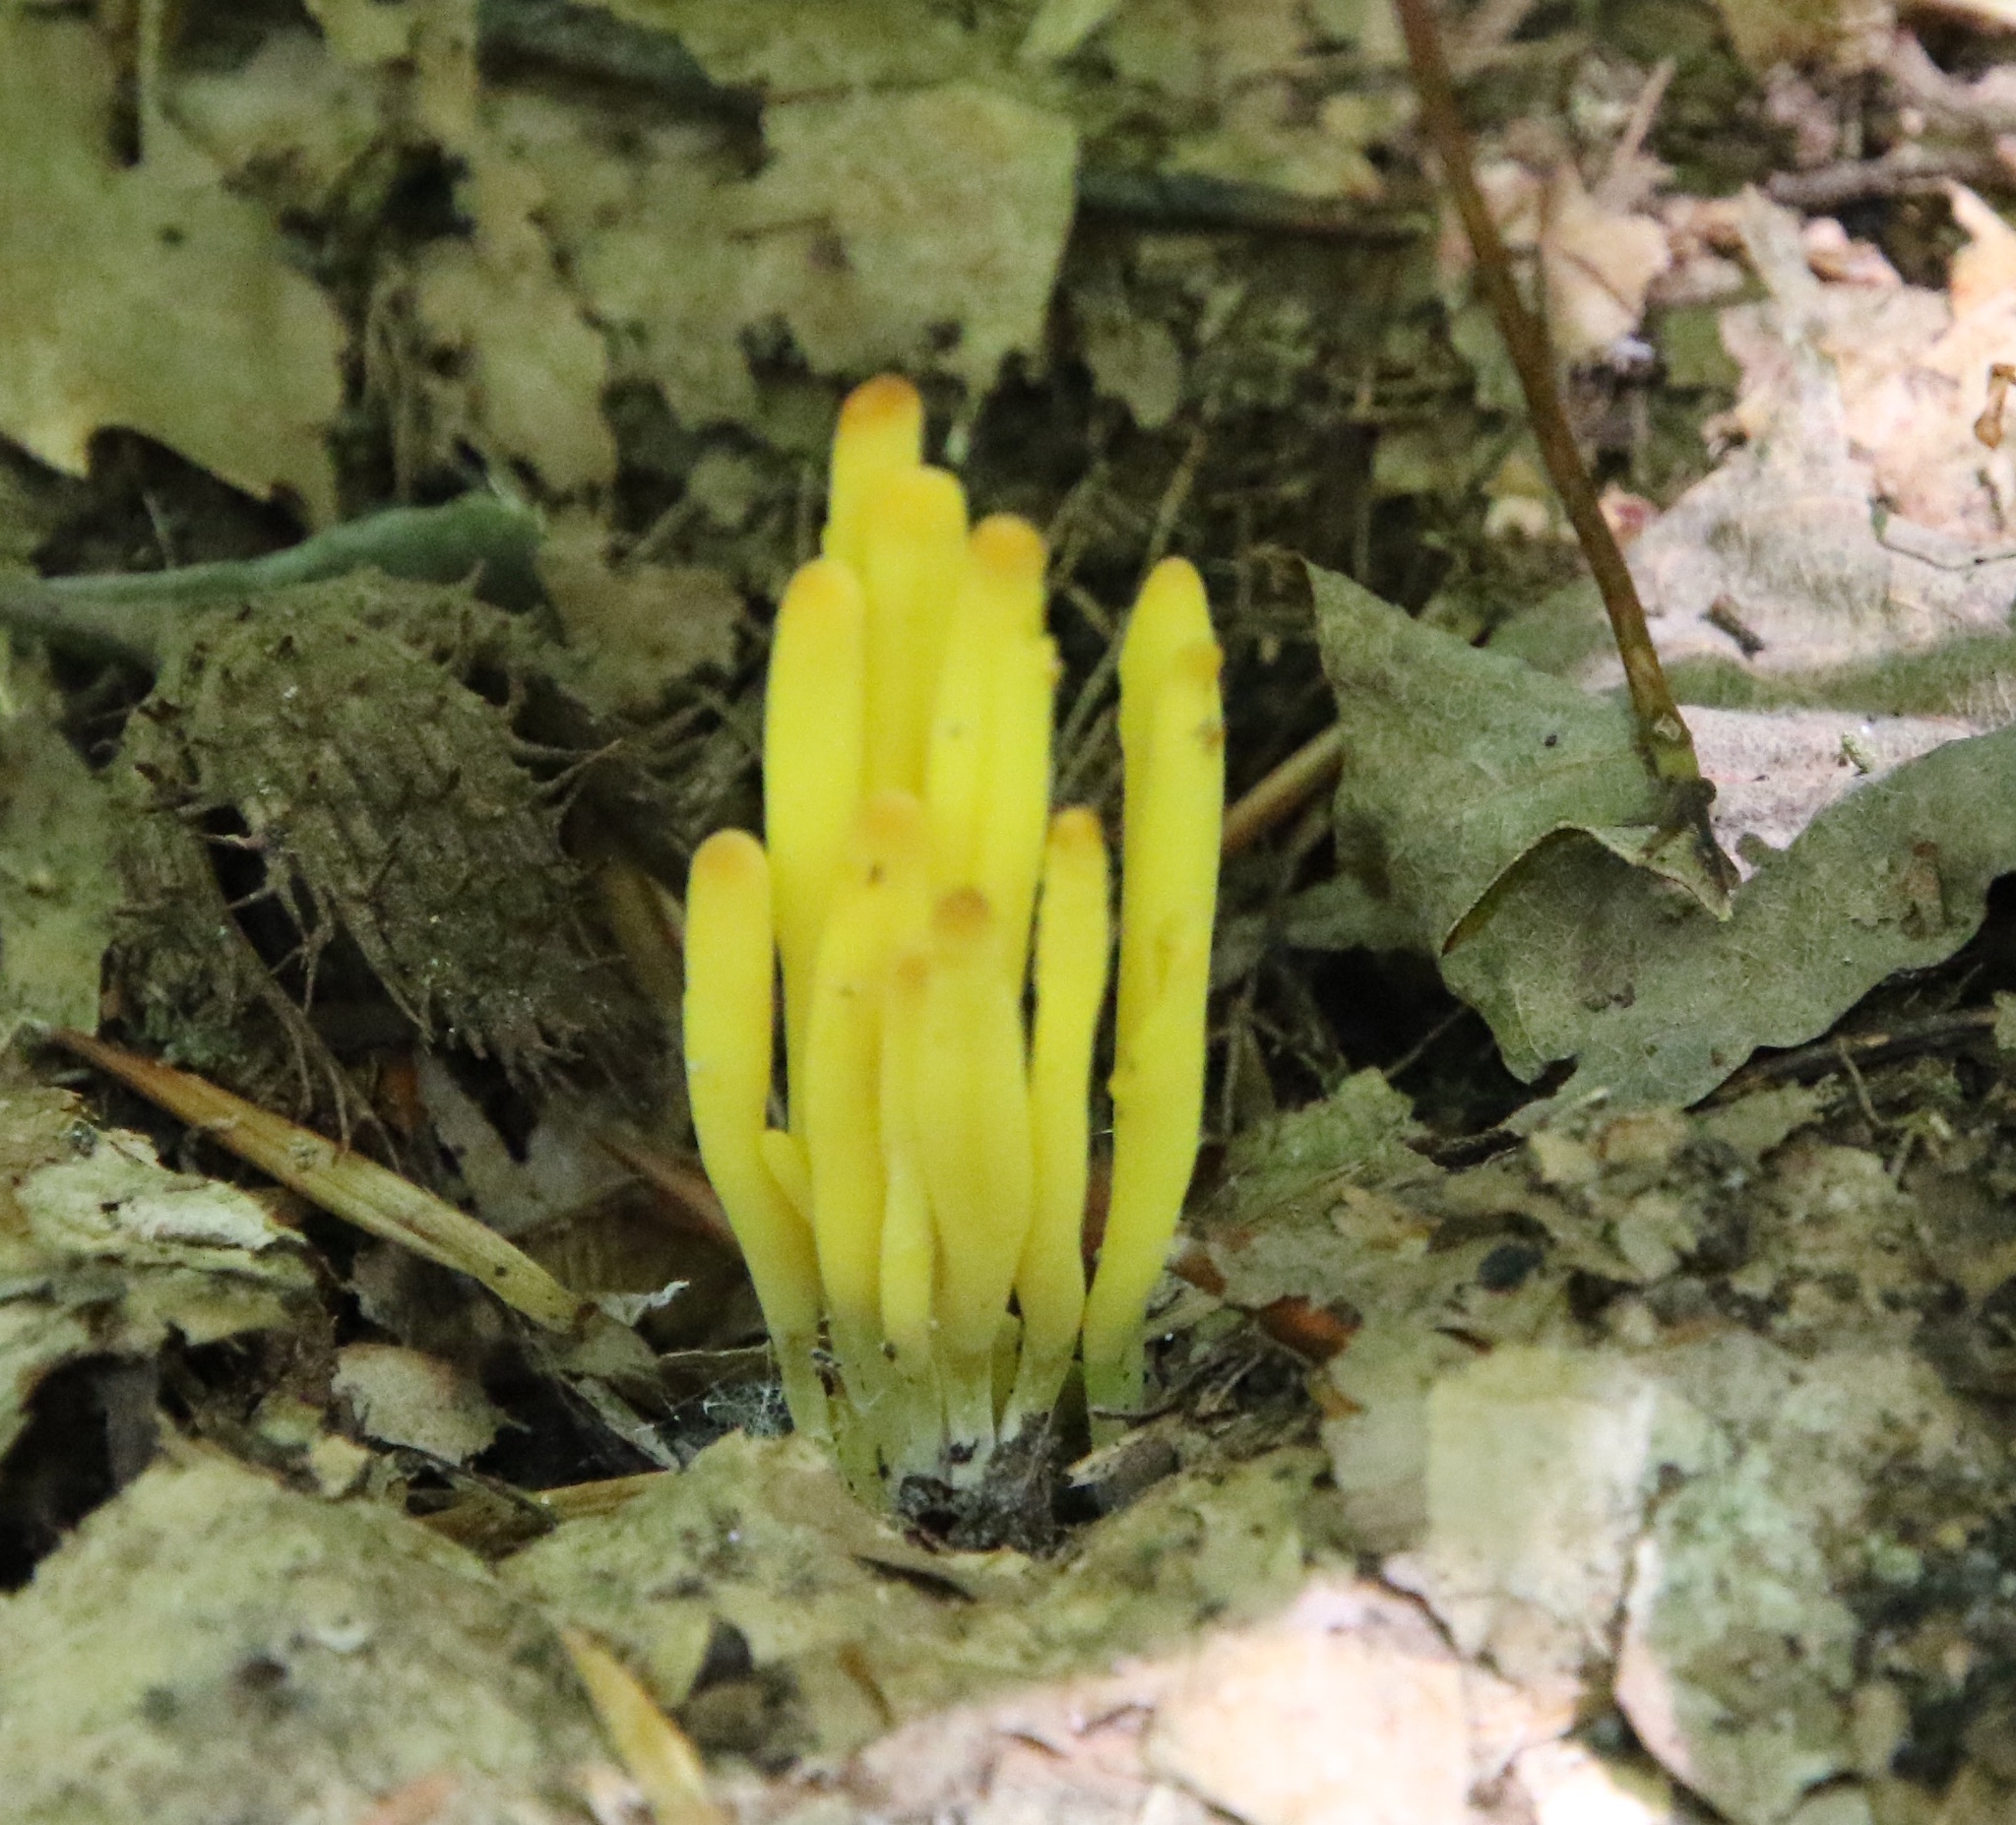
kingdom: Fungi
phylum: Basidiomycota
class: Agaricomycetes
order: Agaricales
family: Clavariaceae
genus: Clavulinopsis
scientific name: Clavulinopsis fusiformis
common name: Golden spindles
